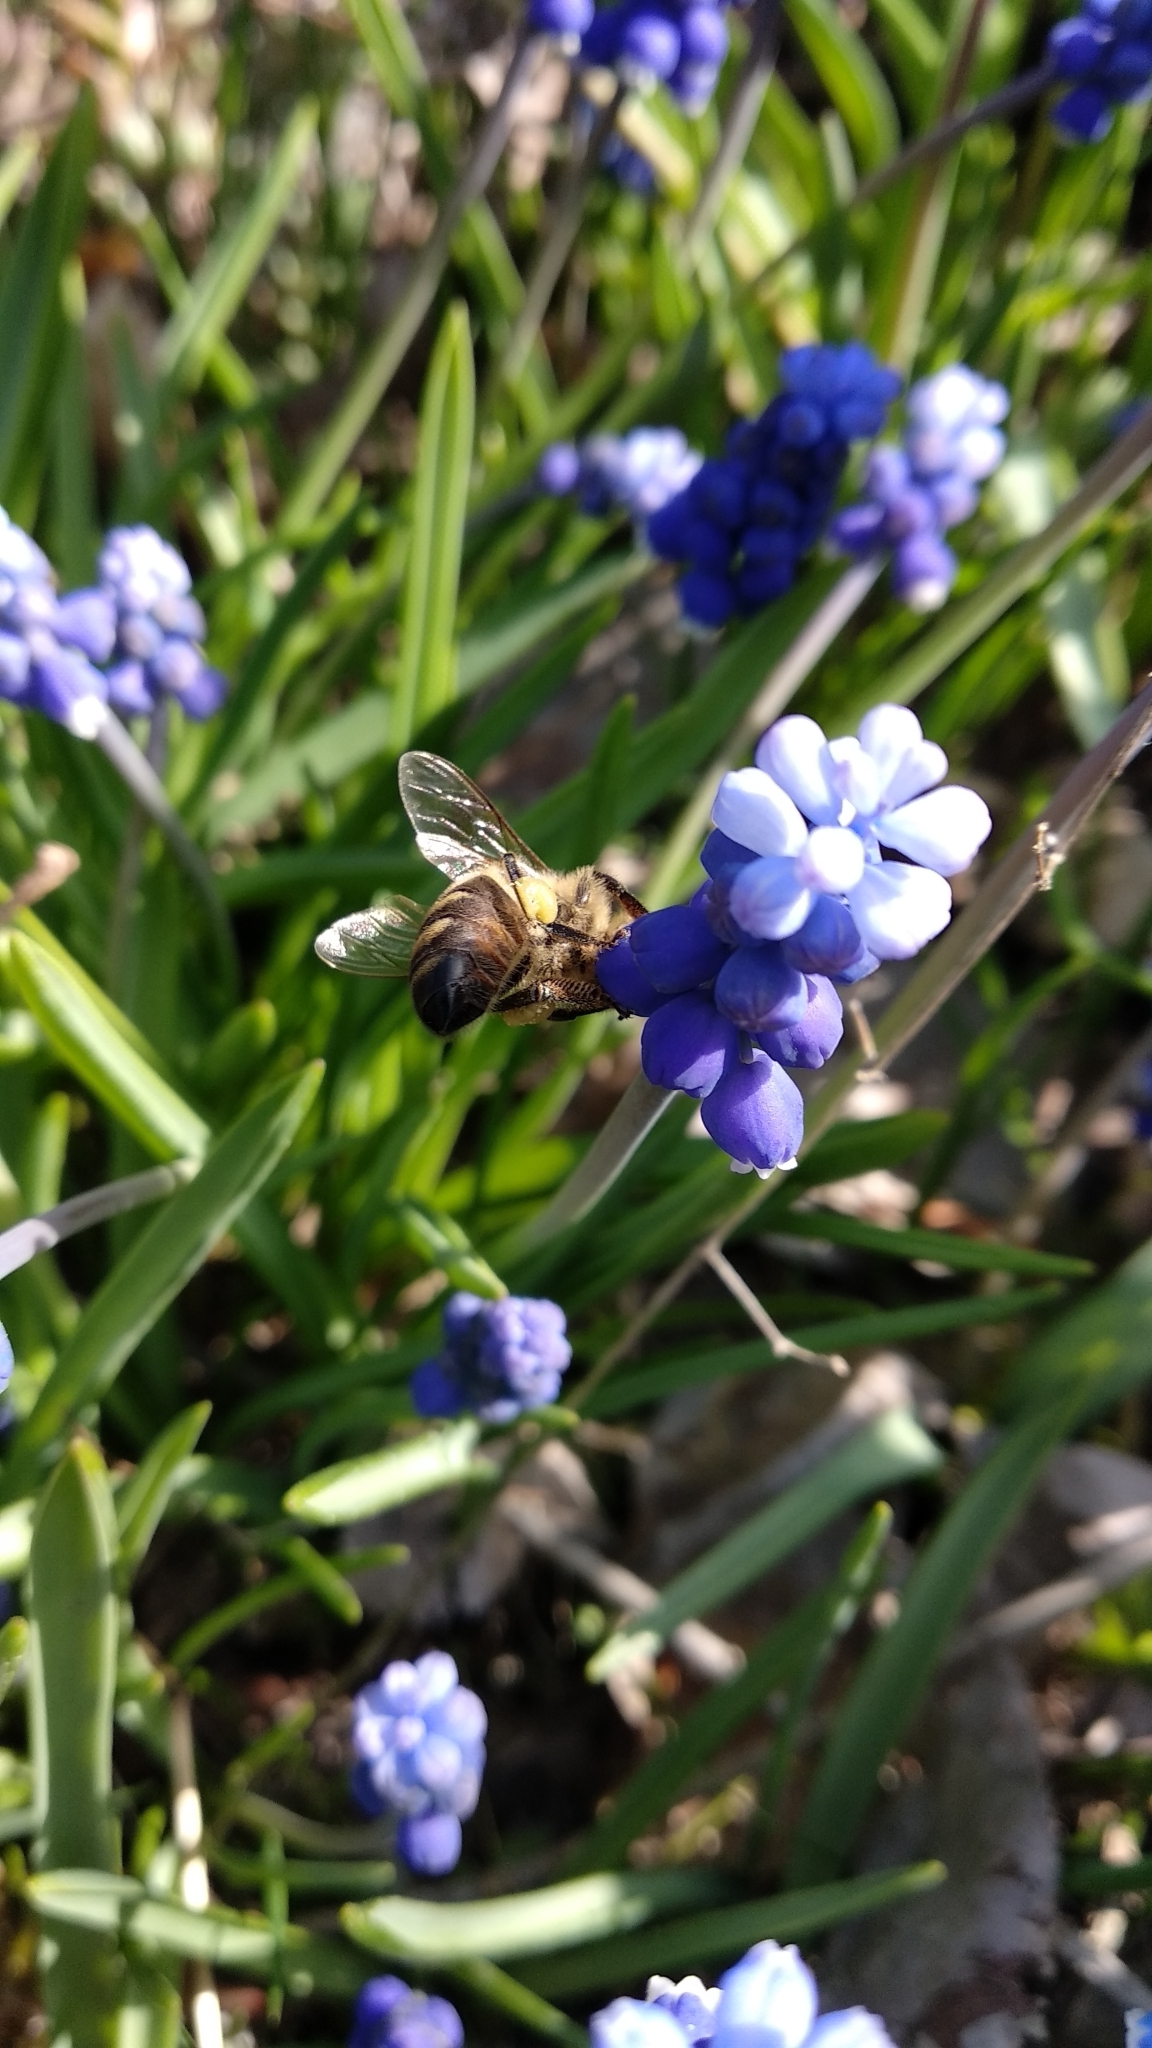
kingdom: Animalia
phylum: Arthropoda
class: Insecta
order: Hymenoptera
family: Apidae
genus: Apis
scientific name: Apis mellifera
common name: Honey bee
